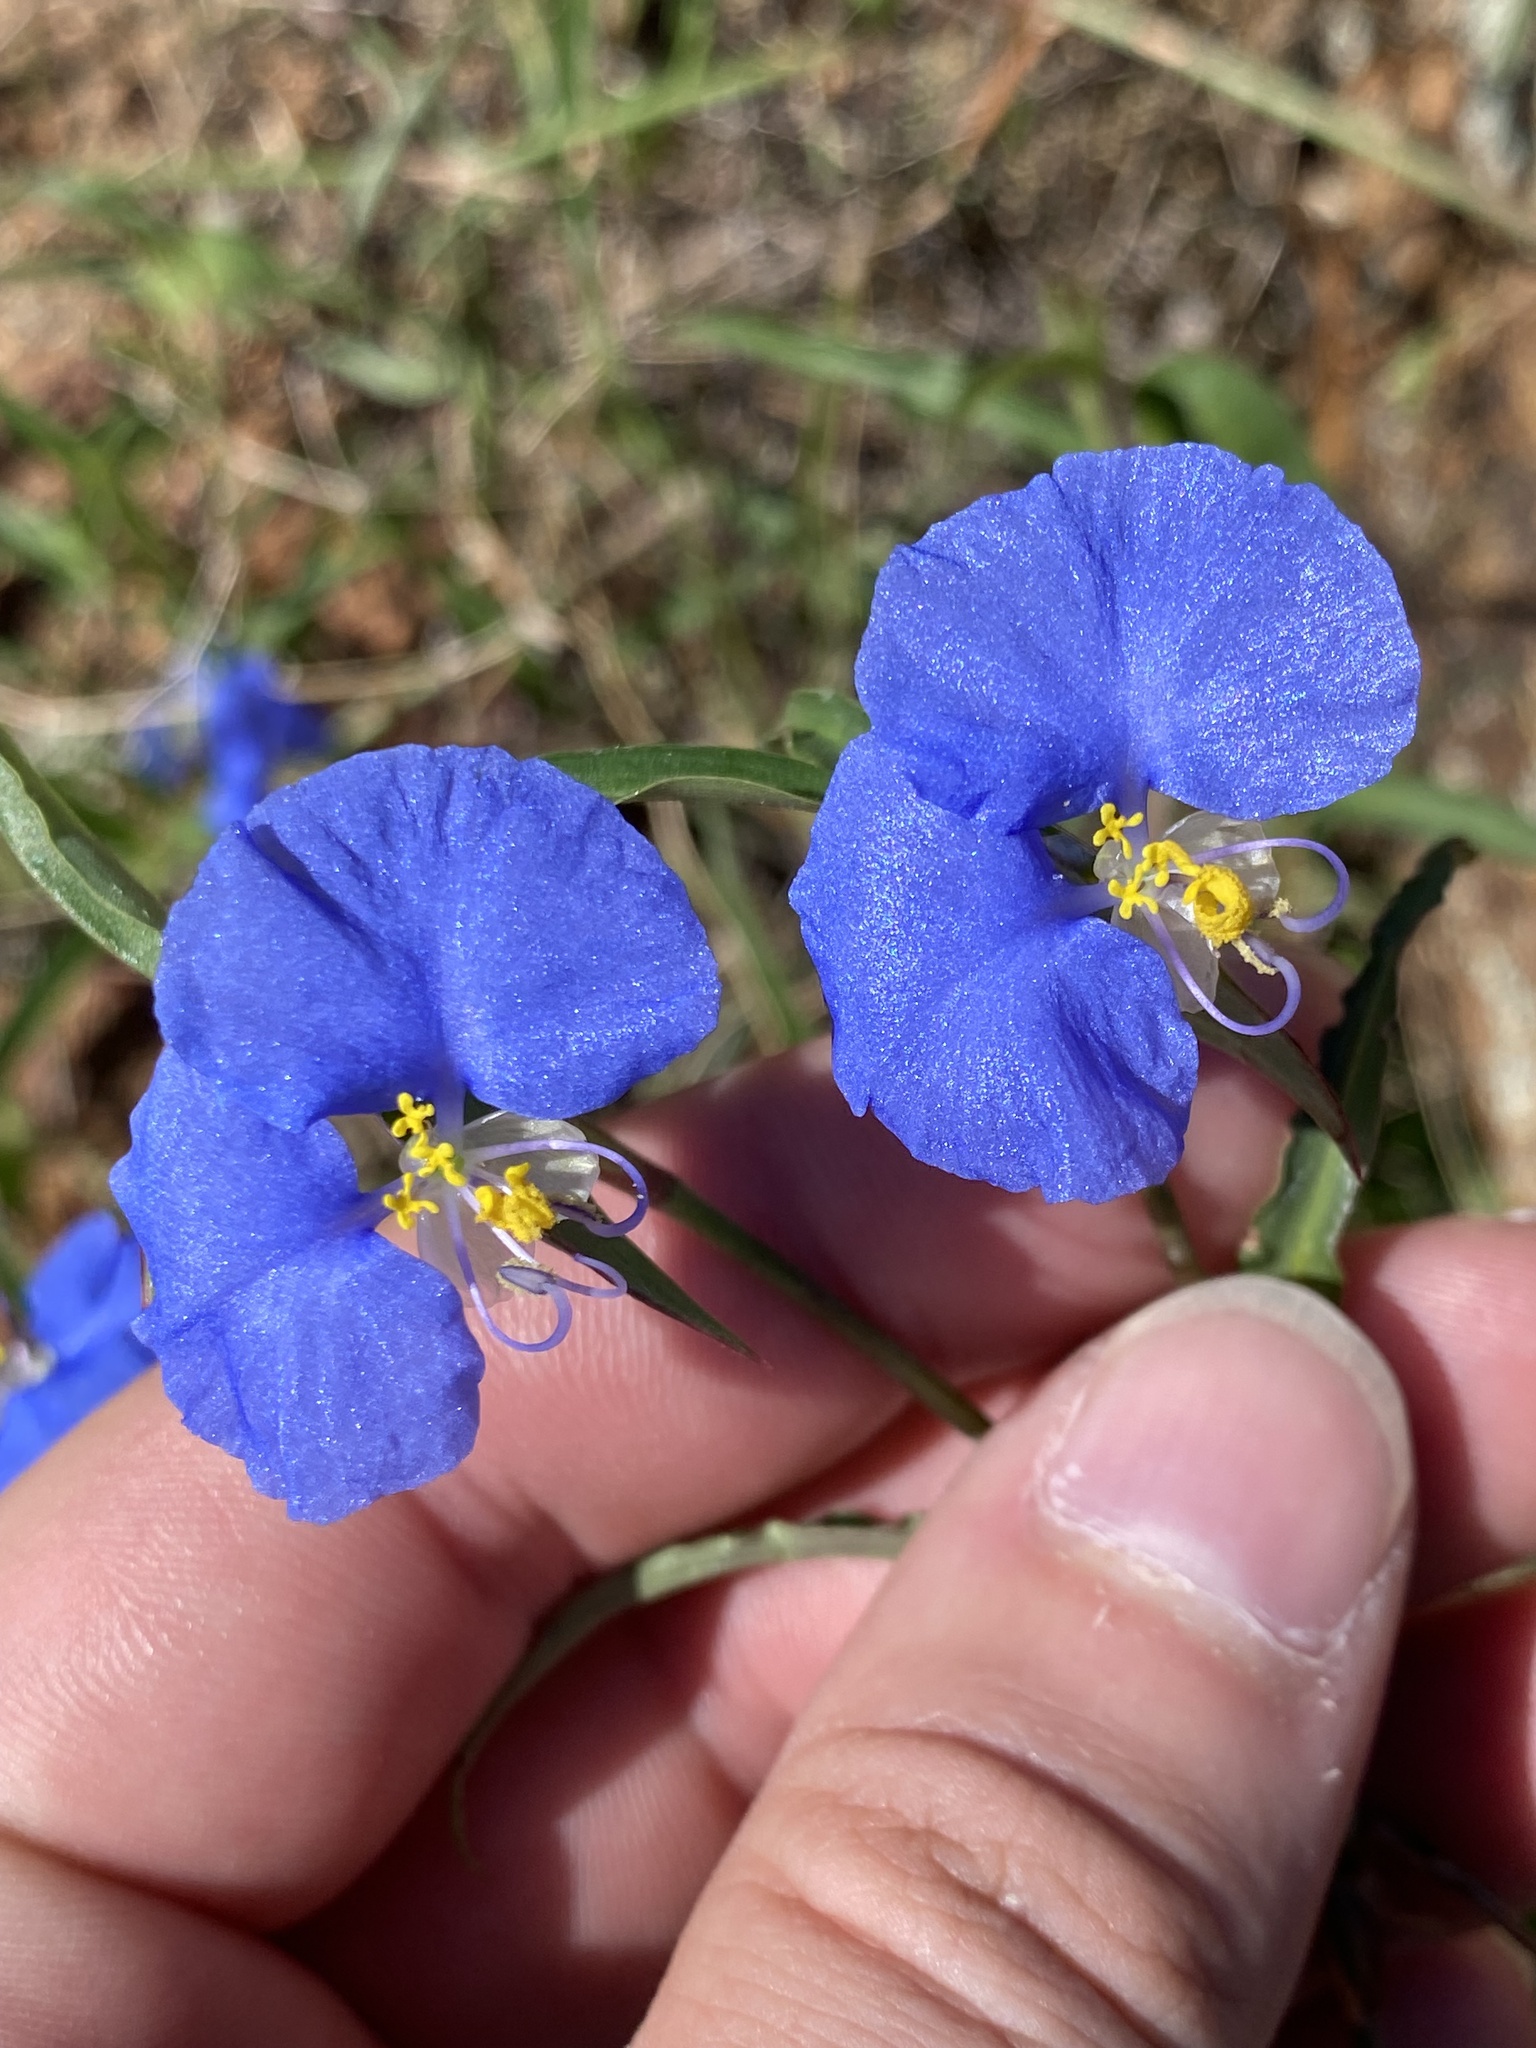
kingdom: Plantae
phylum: Tracheophyta
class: Liliopsida
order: Commelinales
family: Commelinaceae
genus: Commelina
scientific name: Commelina erecta
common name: Blousel blommetjie
